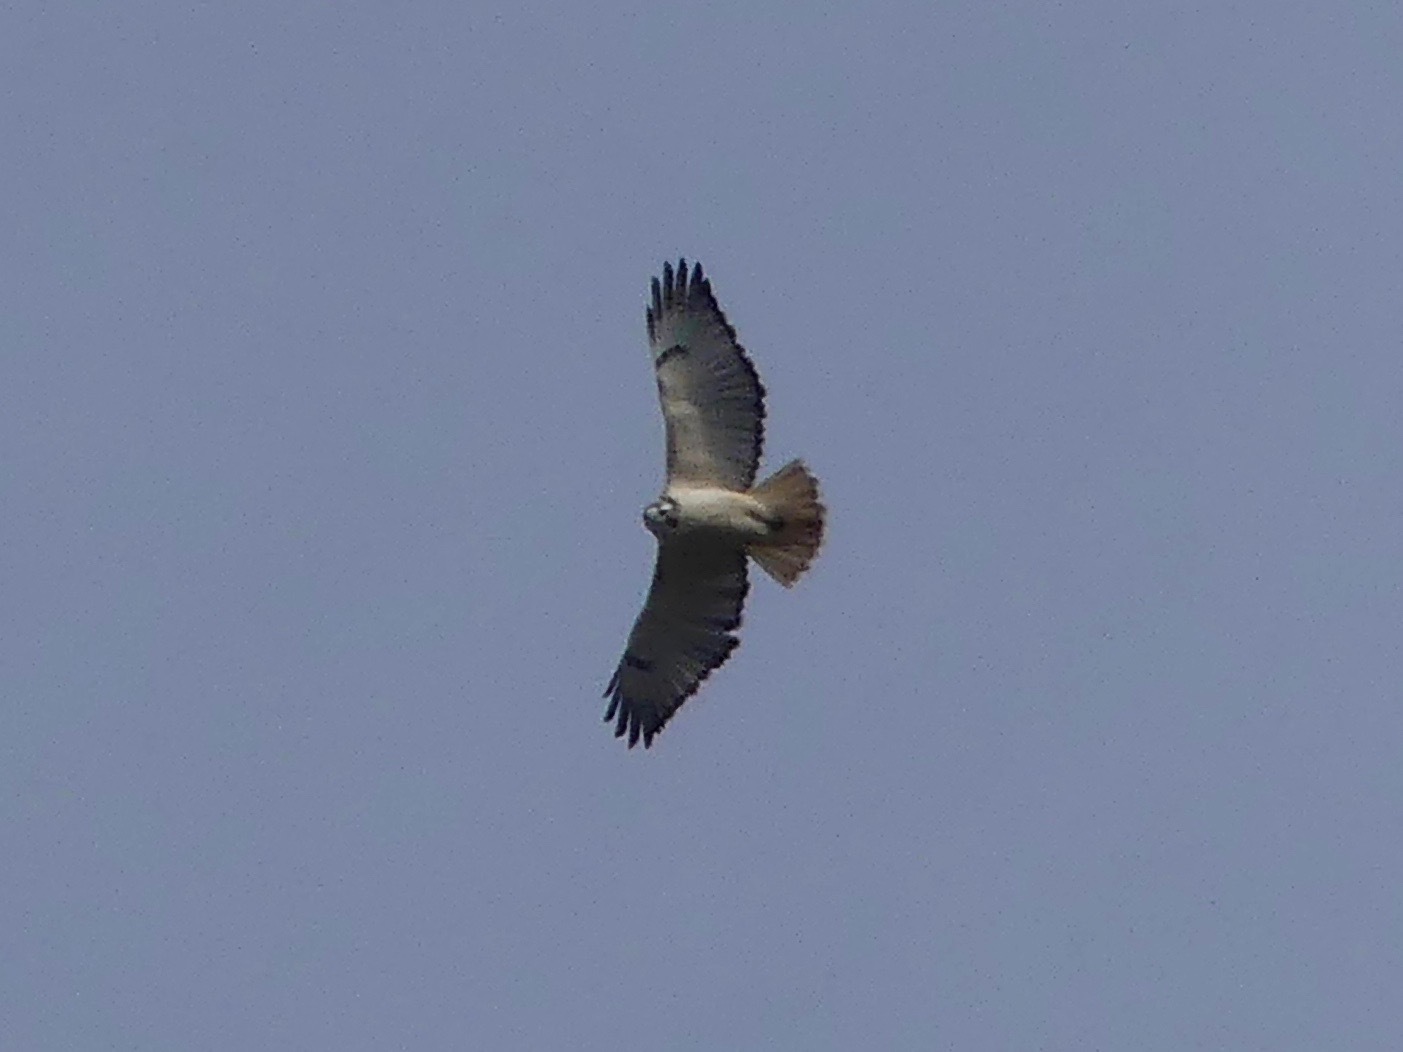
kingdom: Animalia
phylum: Chordata
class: Aves
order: Accipitriformes
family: Accipitridae
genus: Buteo
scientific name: Buteo jamaicensis
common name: Red-tailed hawk
